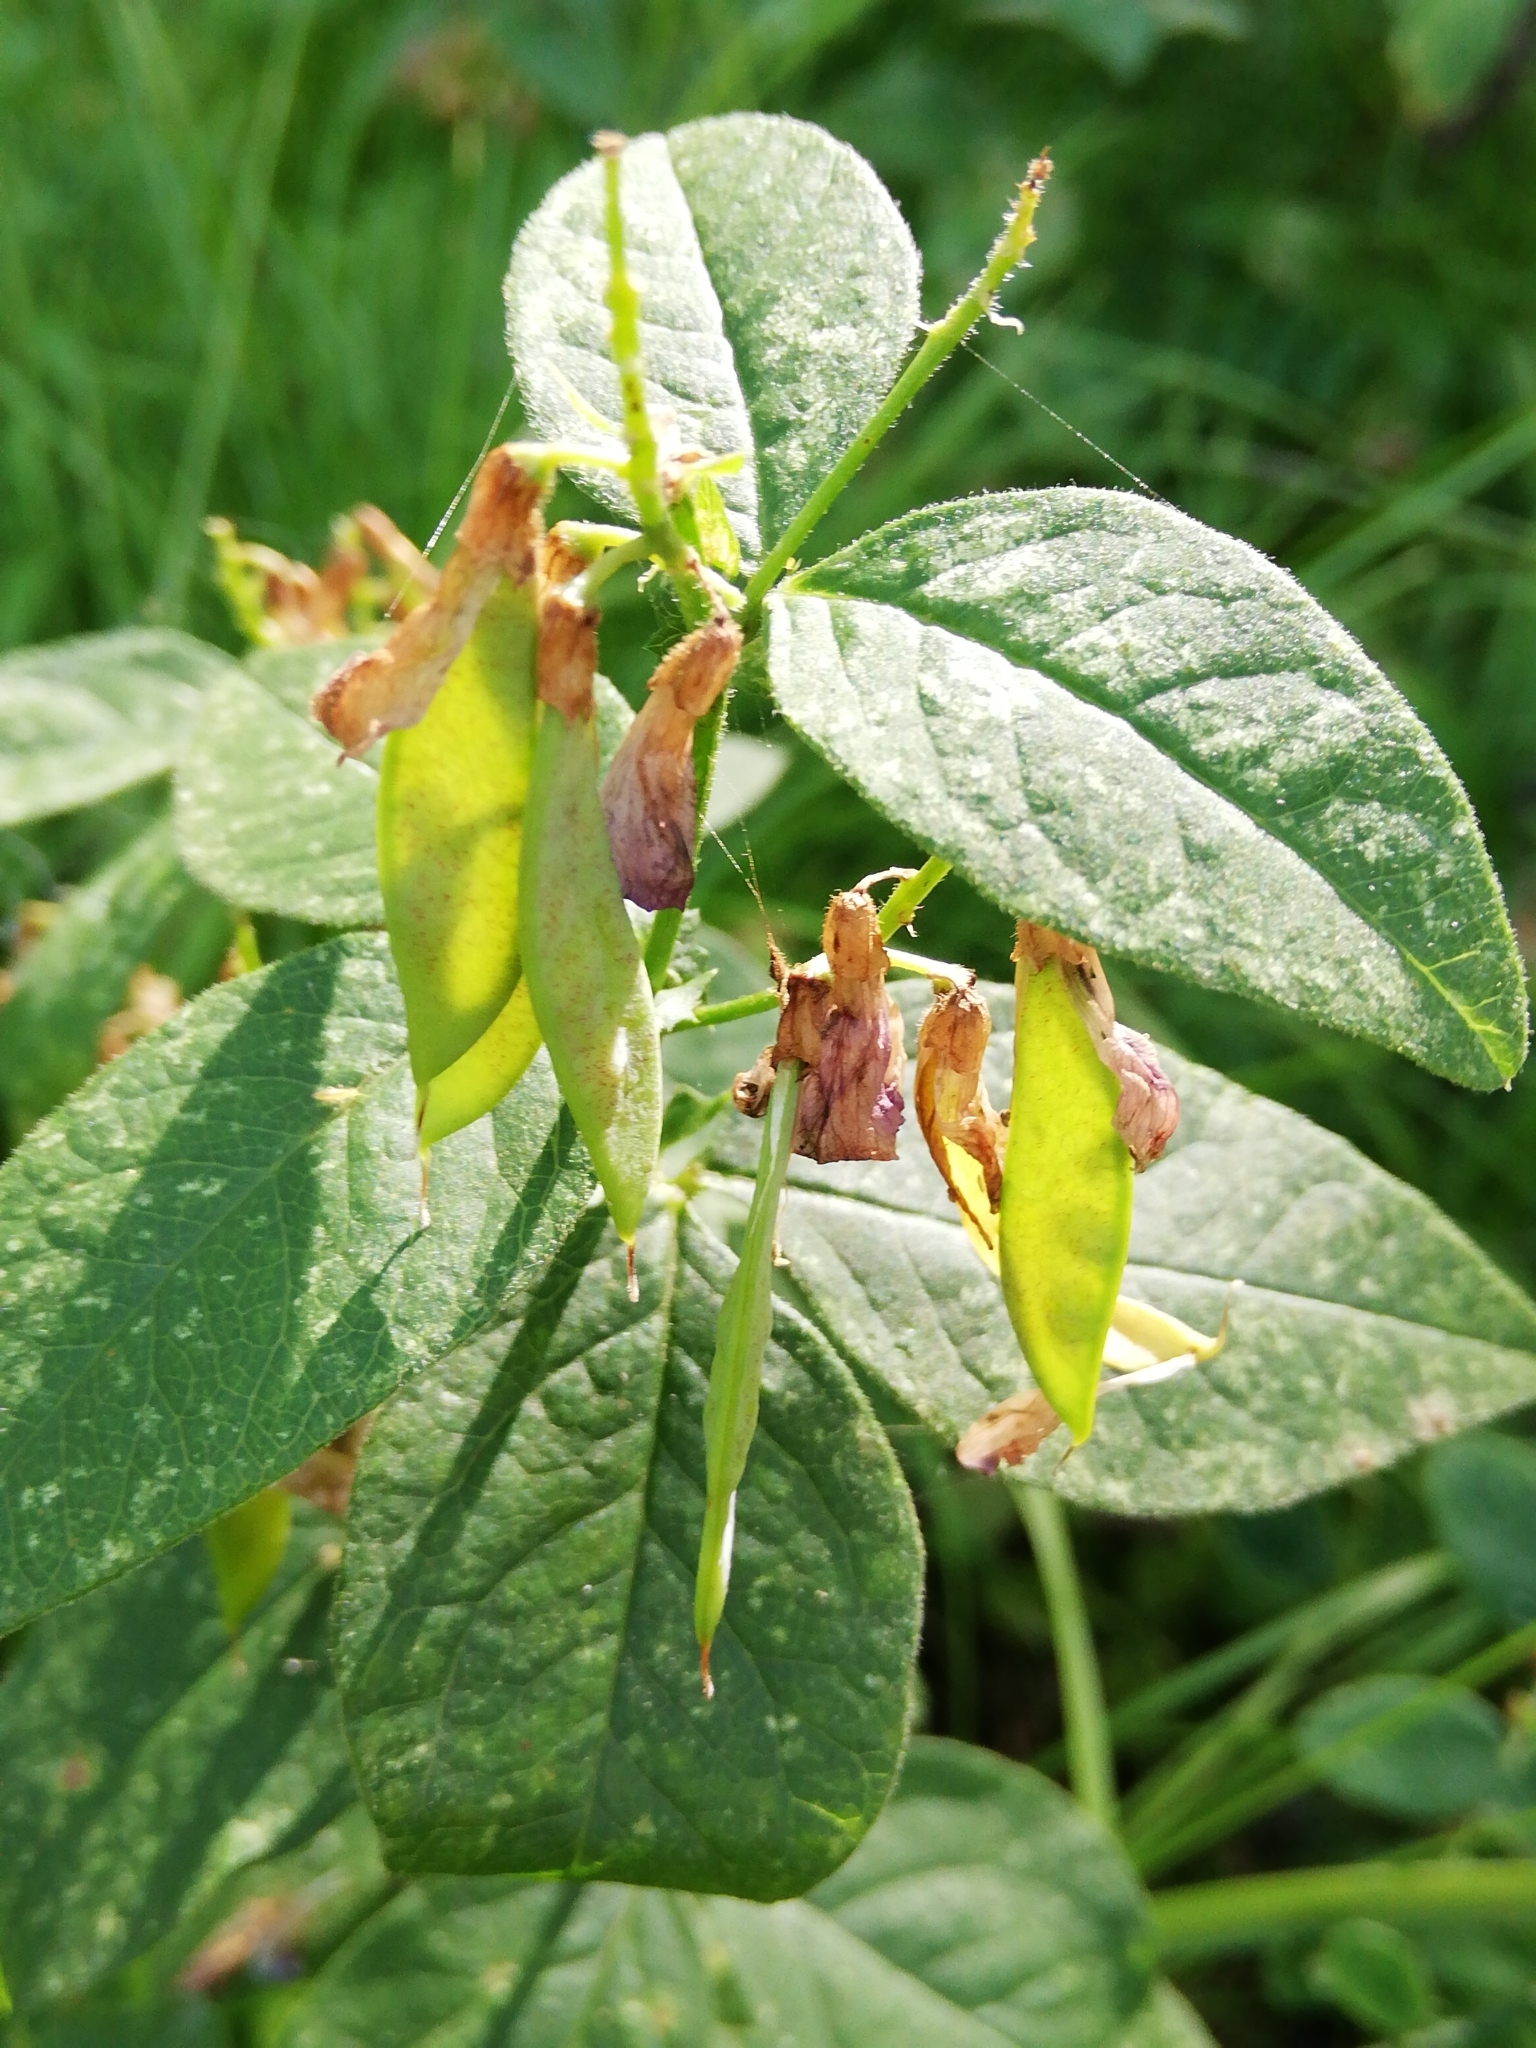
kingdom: Plantae
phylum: Tracheophyta
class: Magnoliopsida
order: Fabales
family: Fabaceae
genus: Vicia
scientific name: Vicia unijuga
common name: Two-leaf vetch
